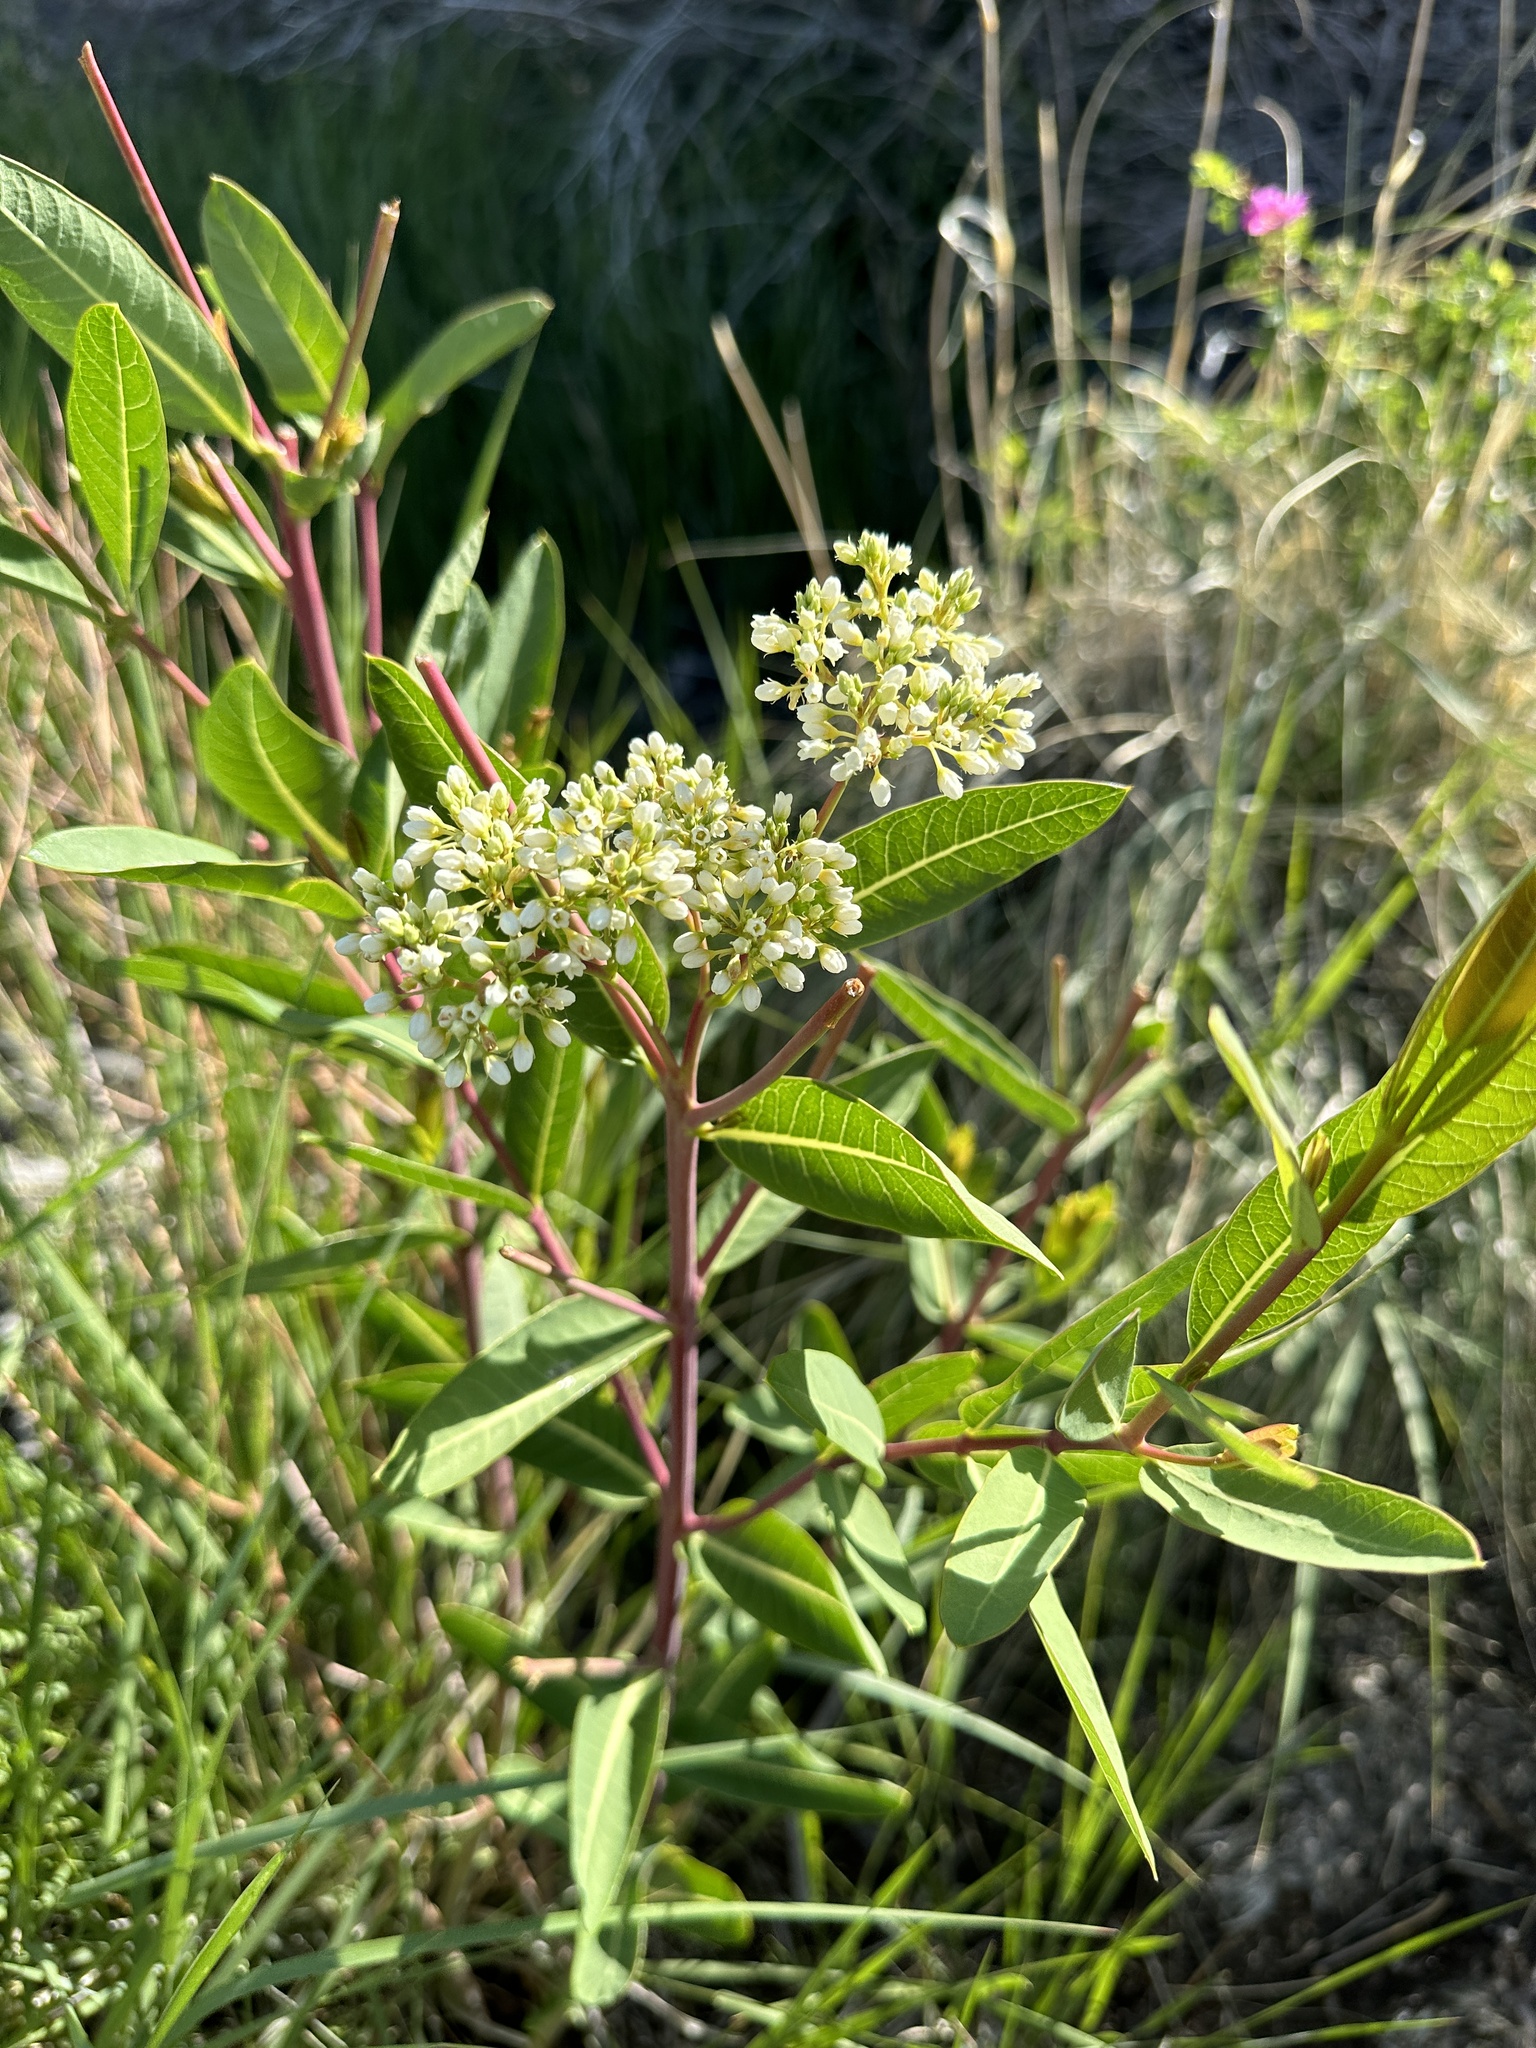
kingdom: Plantae
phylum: Tracheophyta
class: Magnoliopsida
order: Gentianales
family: Apocynaceae
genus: Apocynum
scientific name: Apocynum cannabinum
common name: Hemp dogbane
